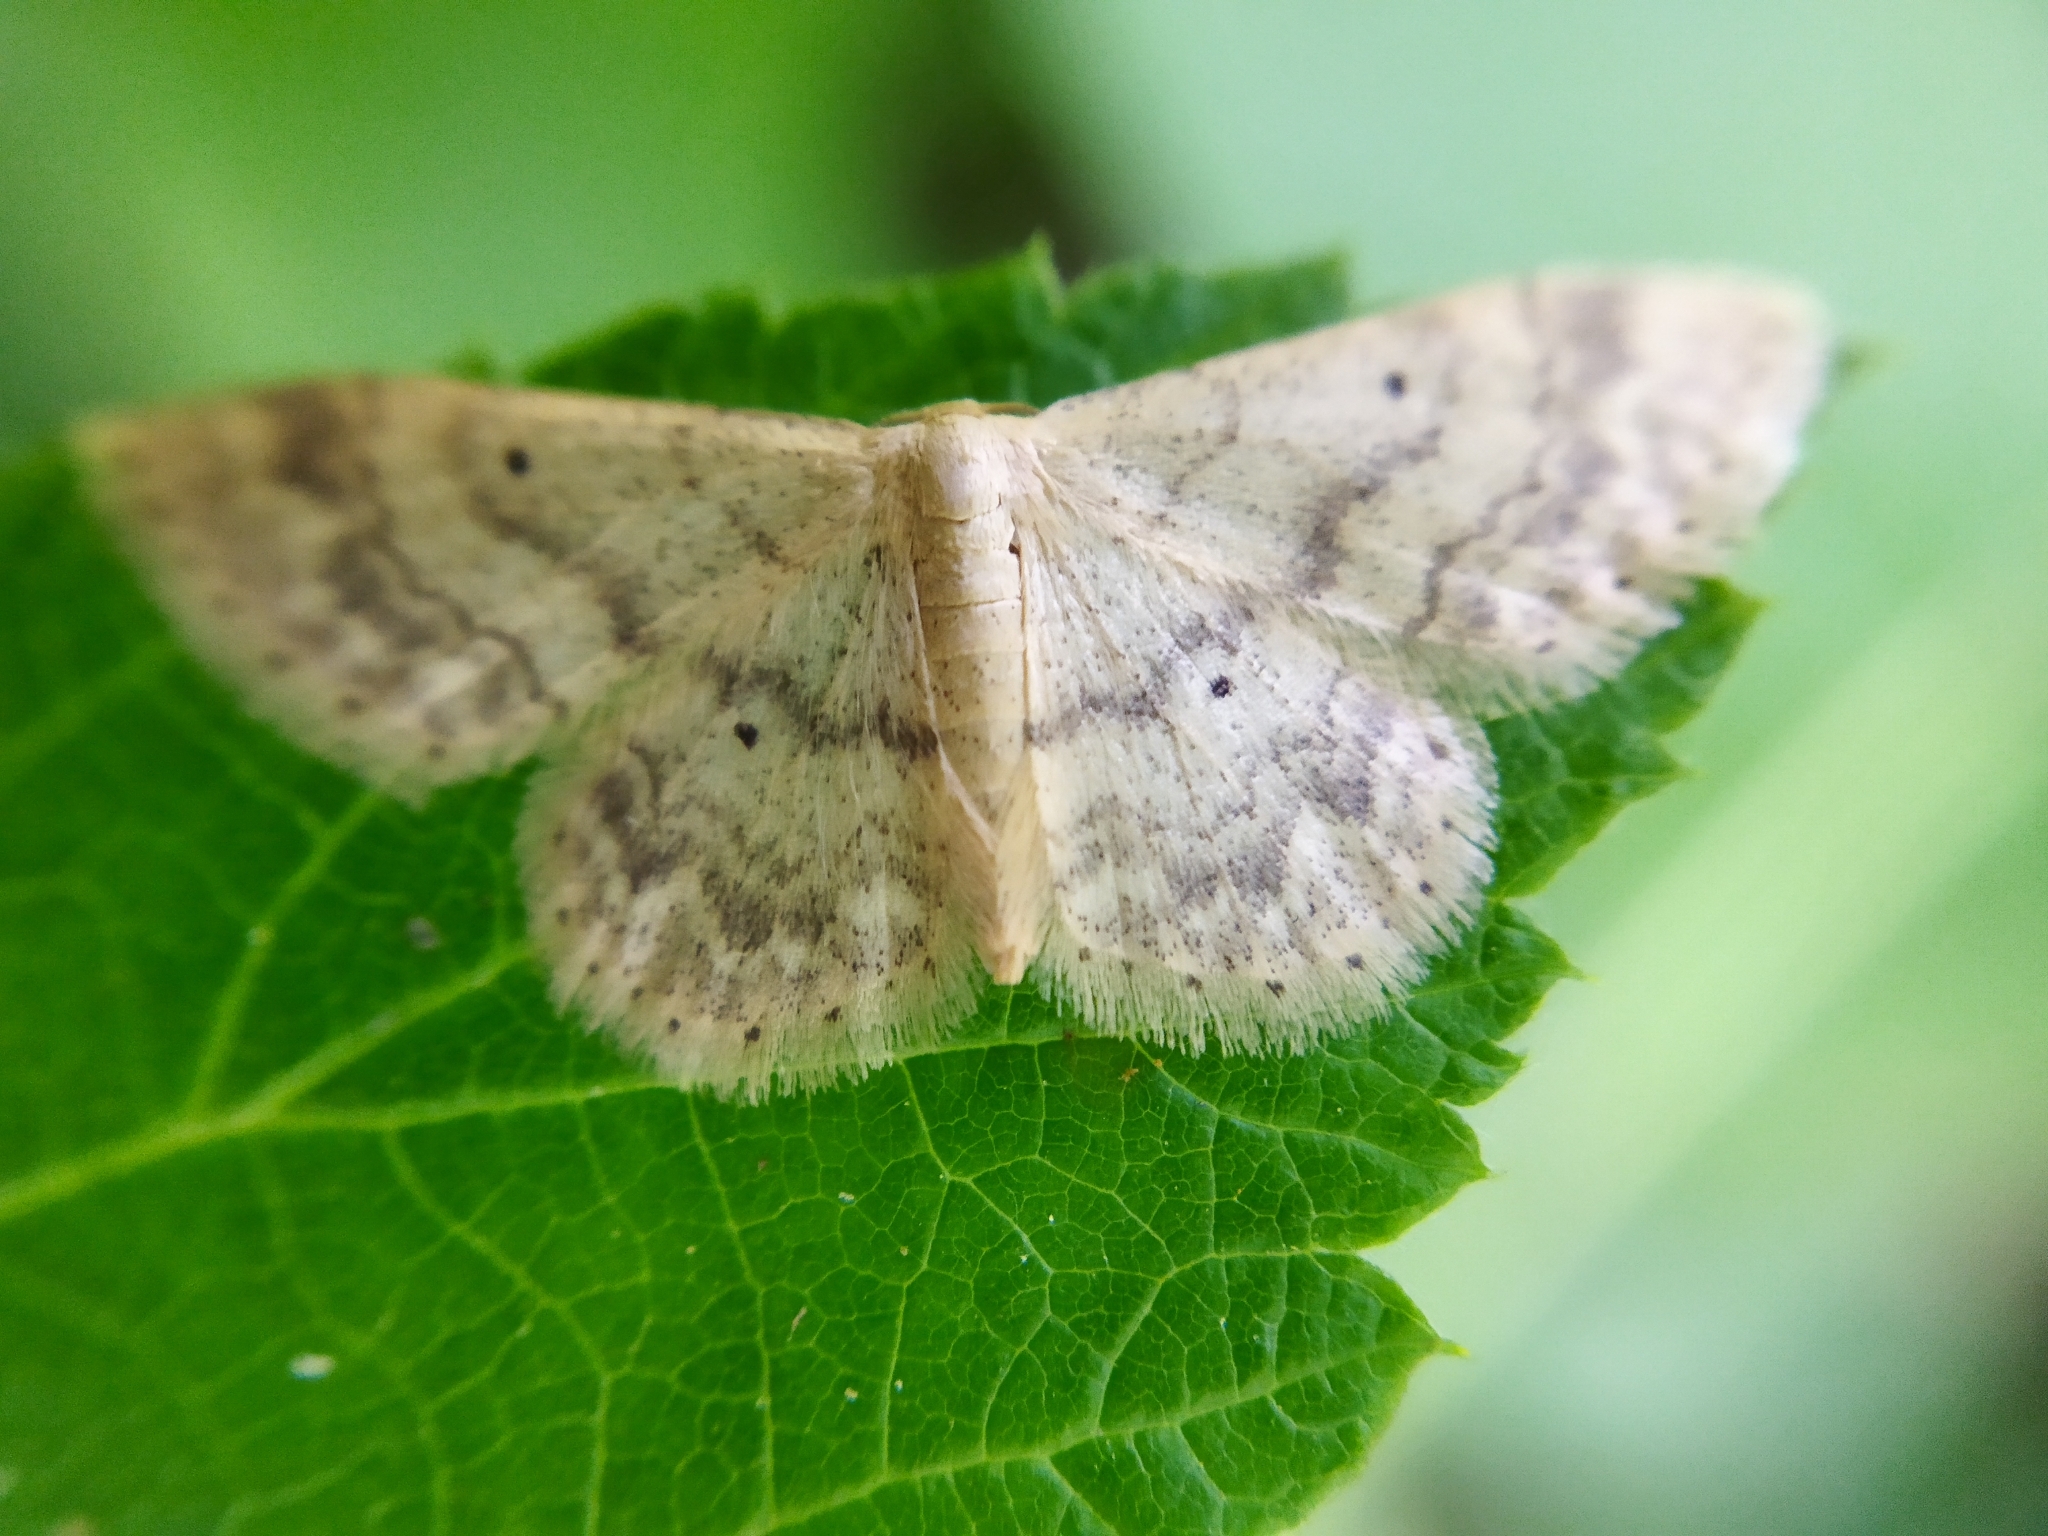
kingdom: Animalia
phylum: Arthropoda
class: Insecta
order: Lepidoptera
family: Geometridae
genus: Idaea
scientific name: Idaea biselata
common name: Small fan-footed wave
